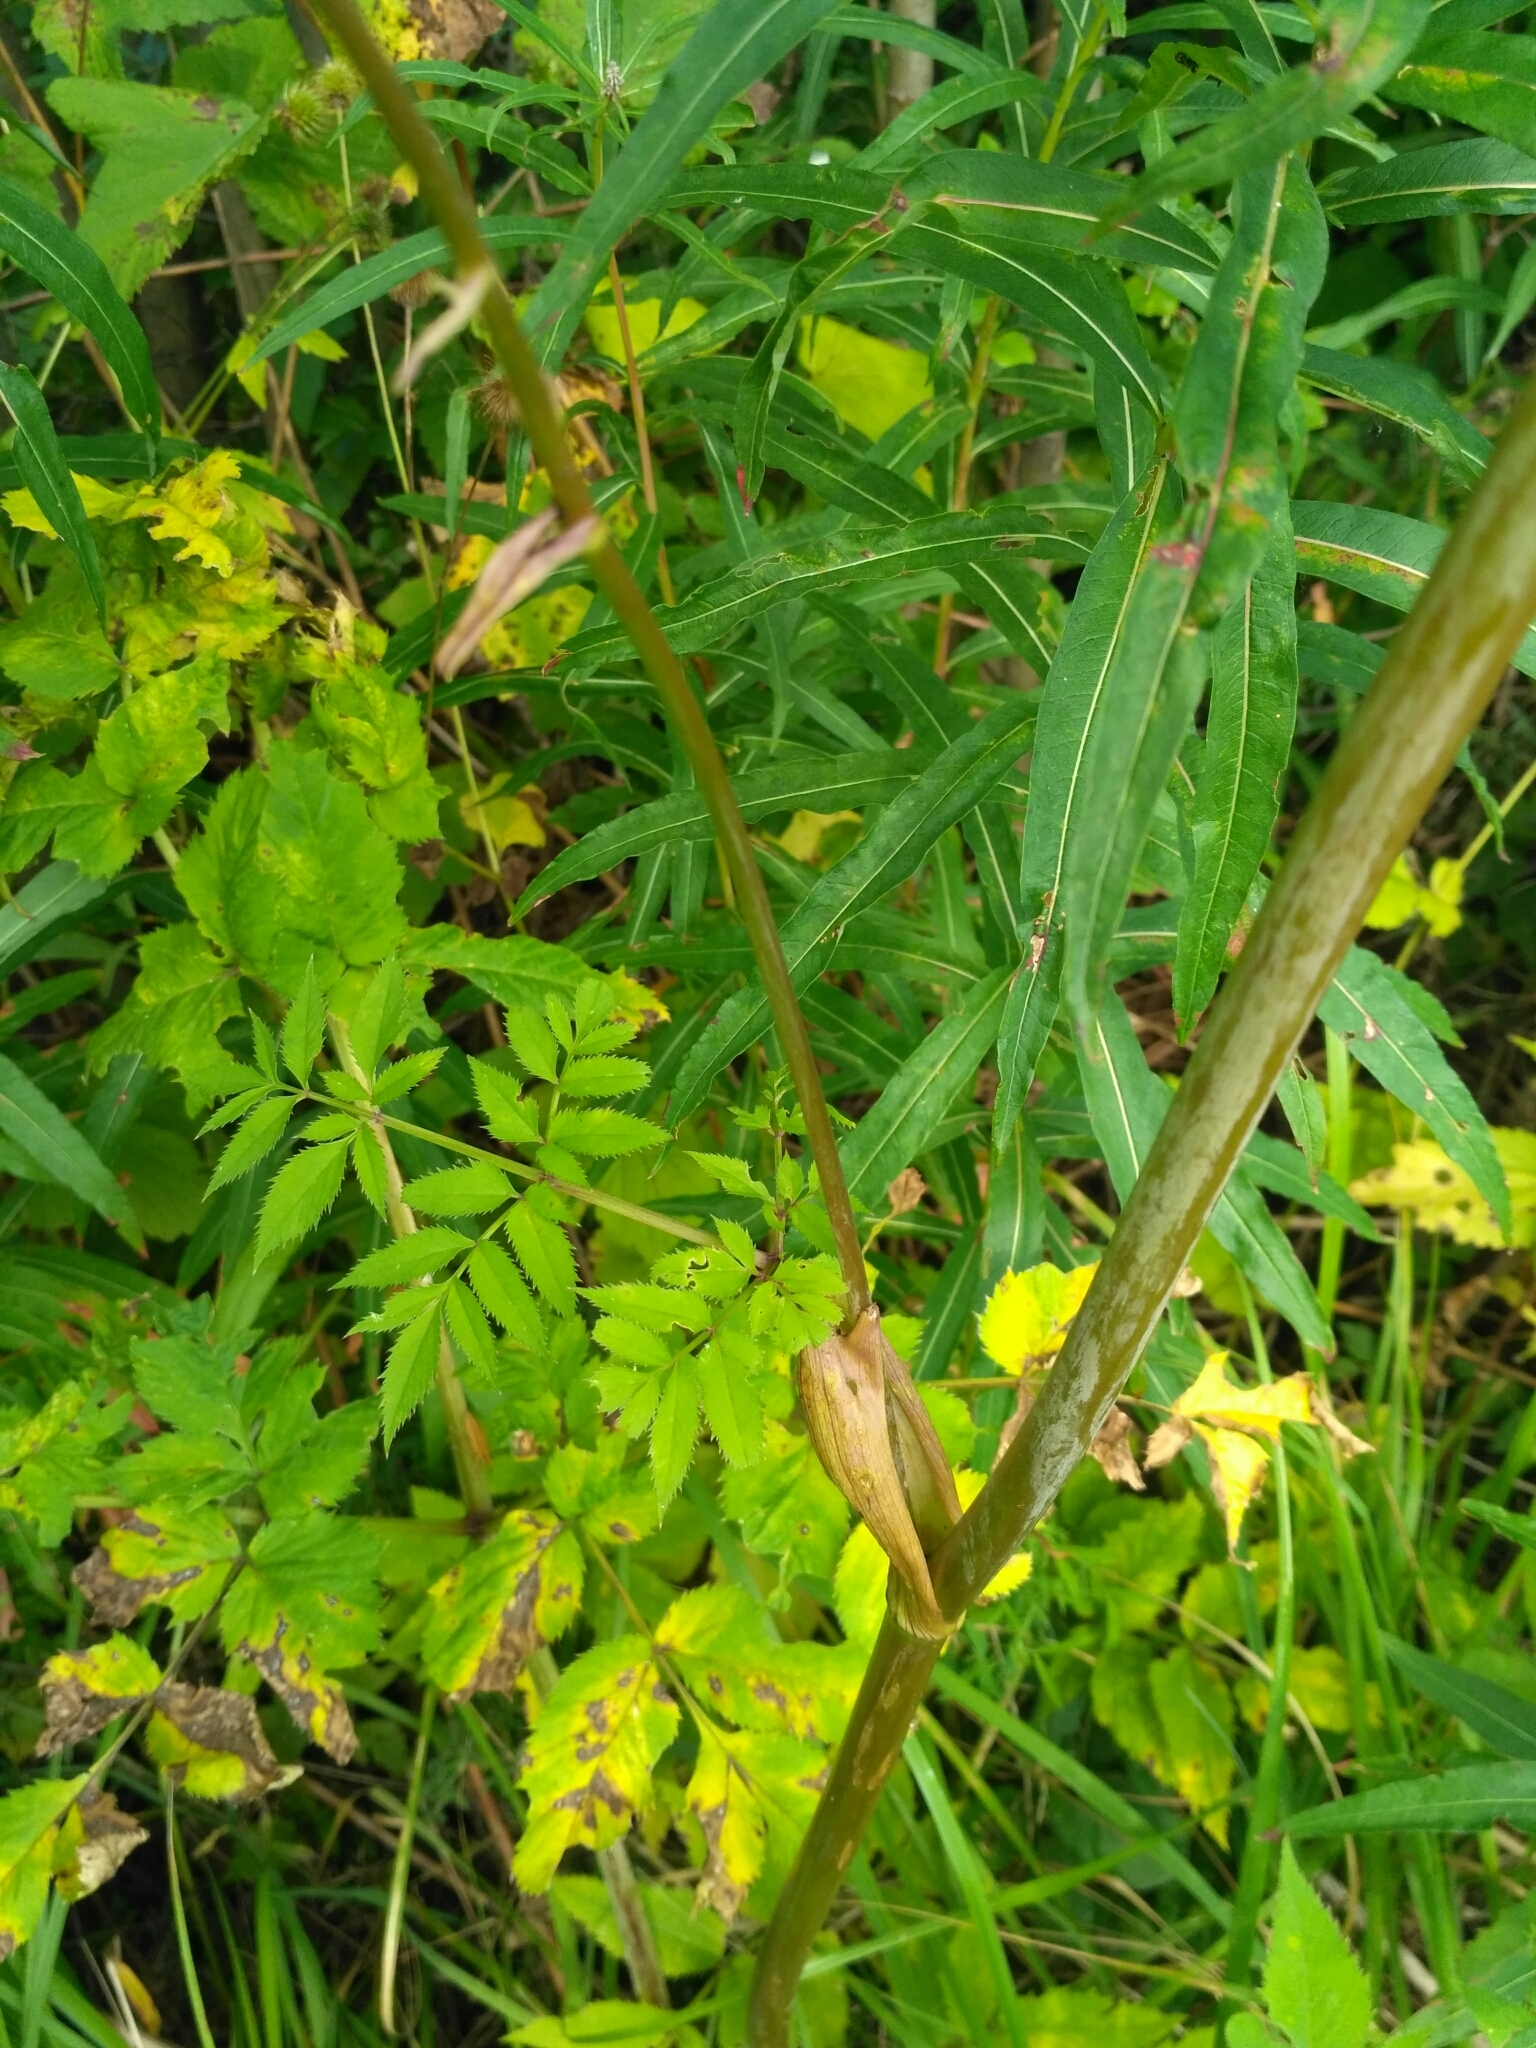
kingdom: Plantae
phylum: Tracheophyta
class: Magnoliopsida
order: Apiales
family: Apiaceae
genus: Angelica
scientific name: Angelica sylvestris
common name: Wild angelica
